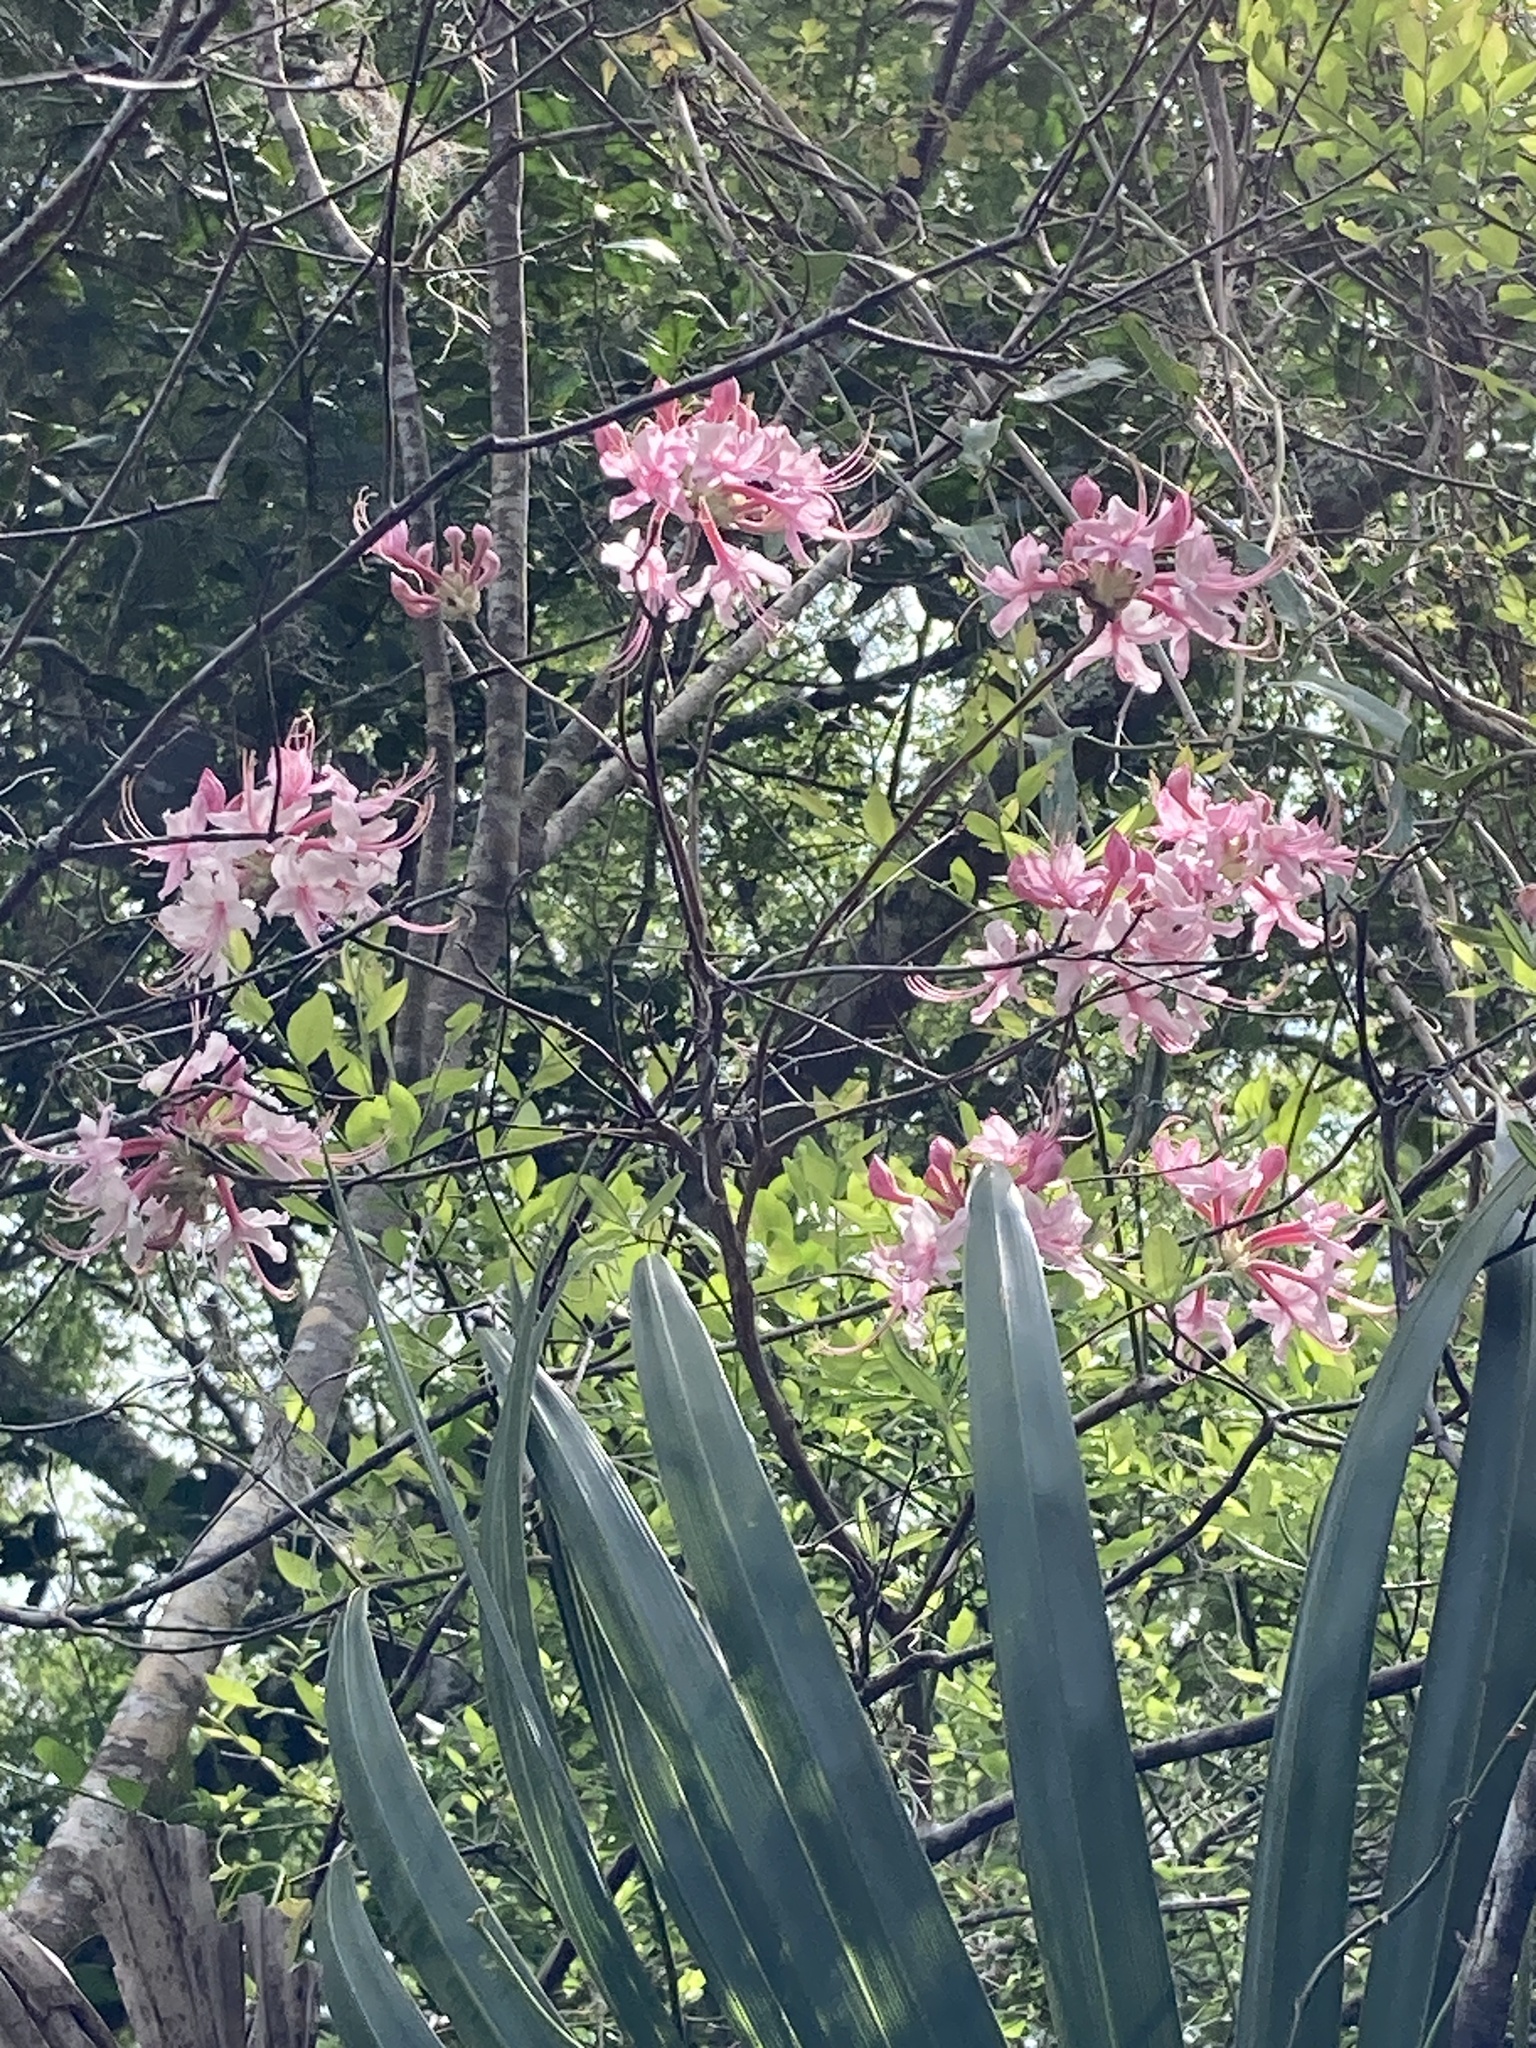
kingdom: Plantae
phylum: Tracheophyta
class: Magnoliopsida
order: Ericales
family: Ericaceae
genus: Rhododendron
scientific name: Rhododendron canescens
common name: Mountain azalea
